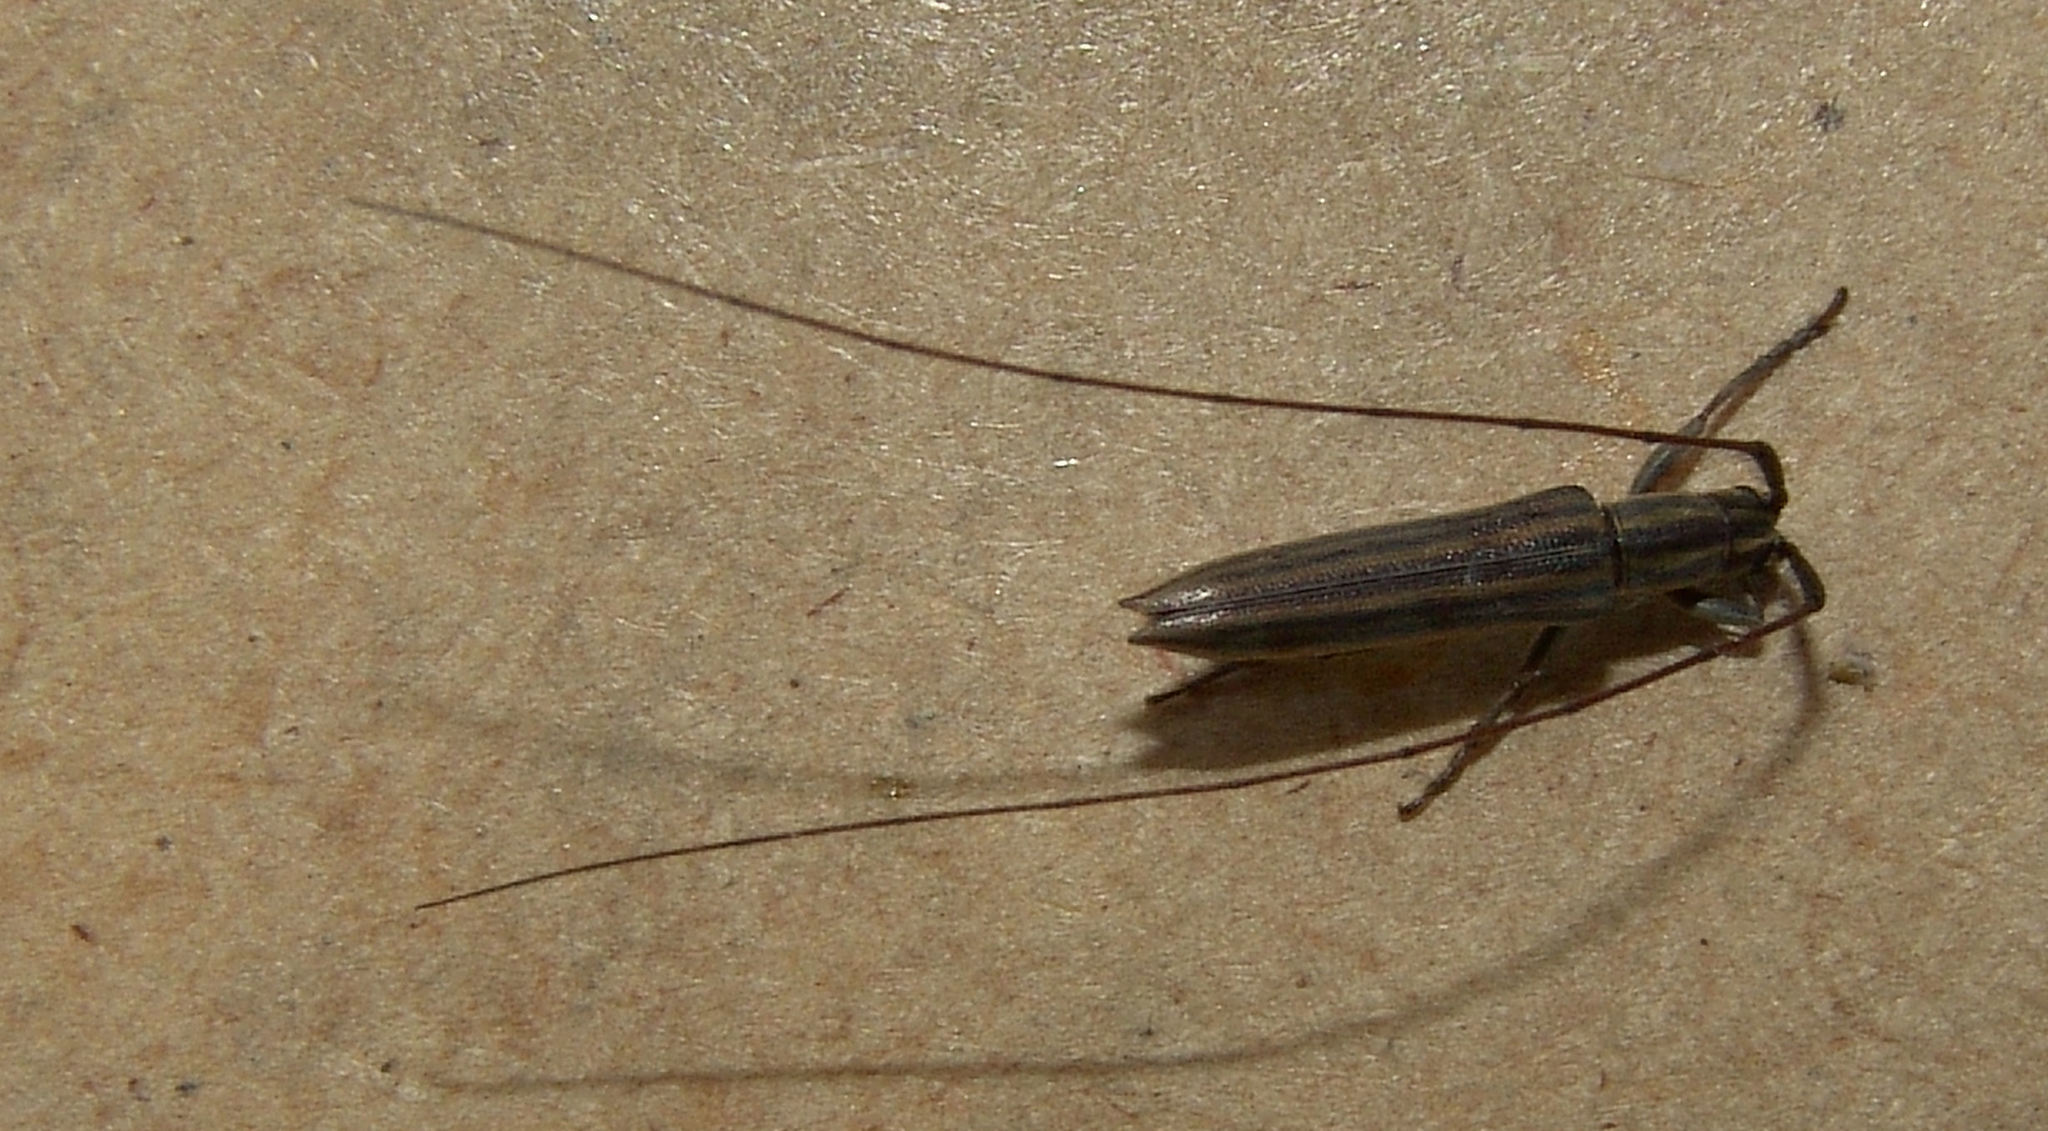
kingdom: Animalia
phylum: Arthropoda
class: Insecta
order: Coleoptera
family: Cerambycidae
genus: Hippopsis
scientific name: Hippopsis
